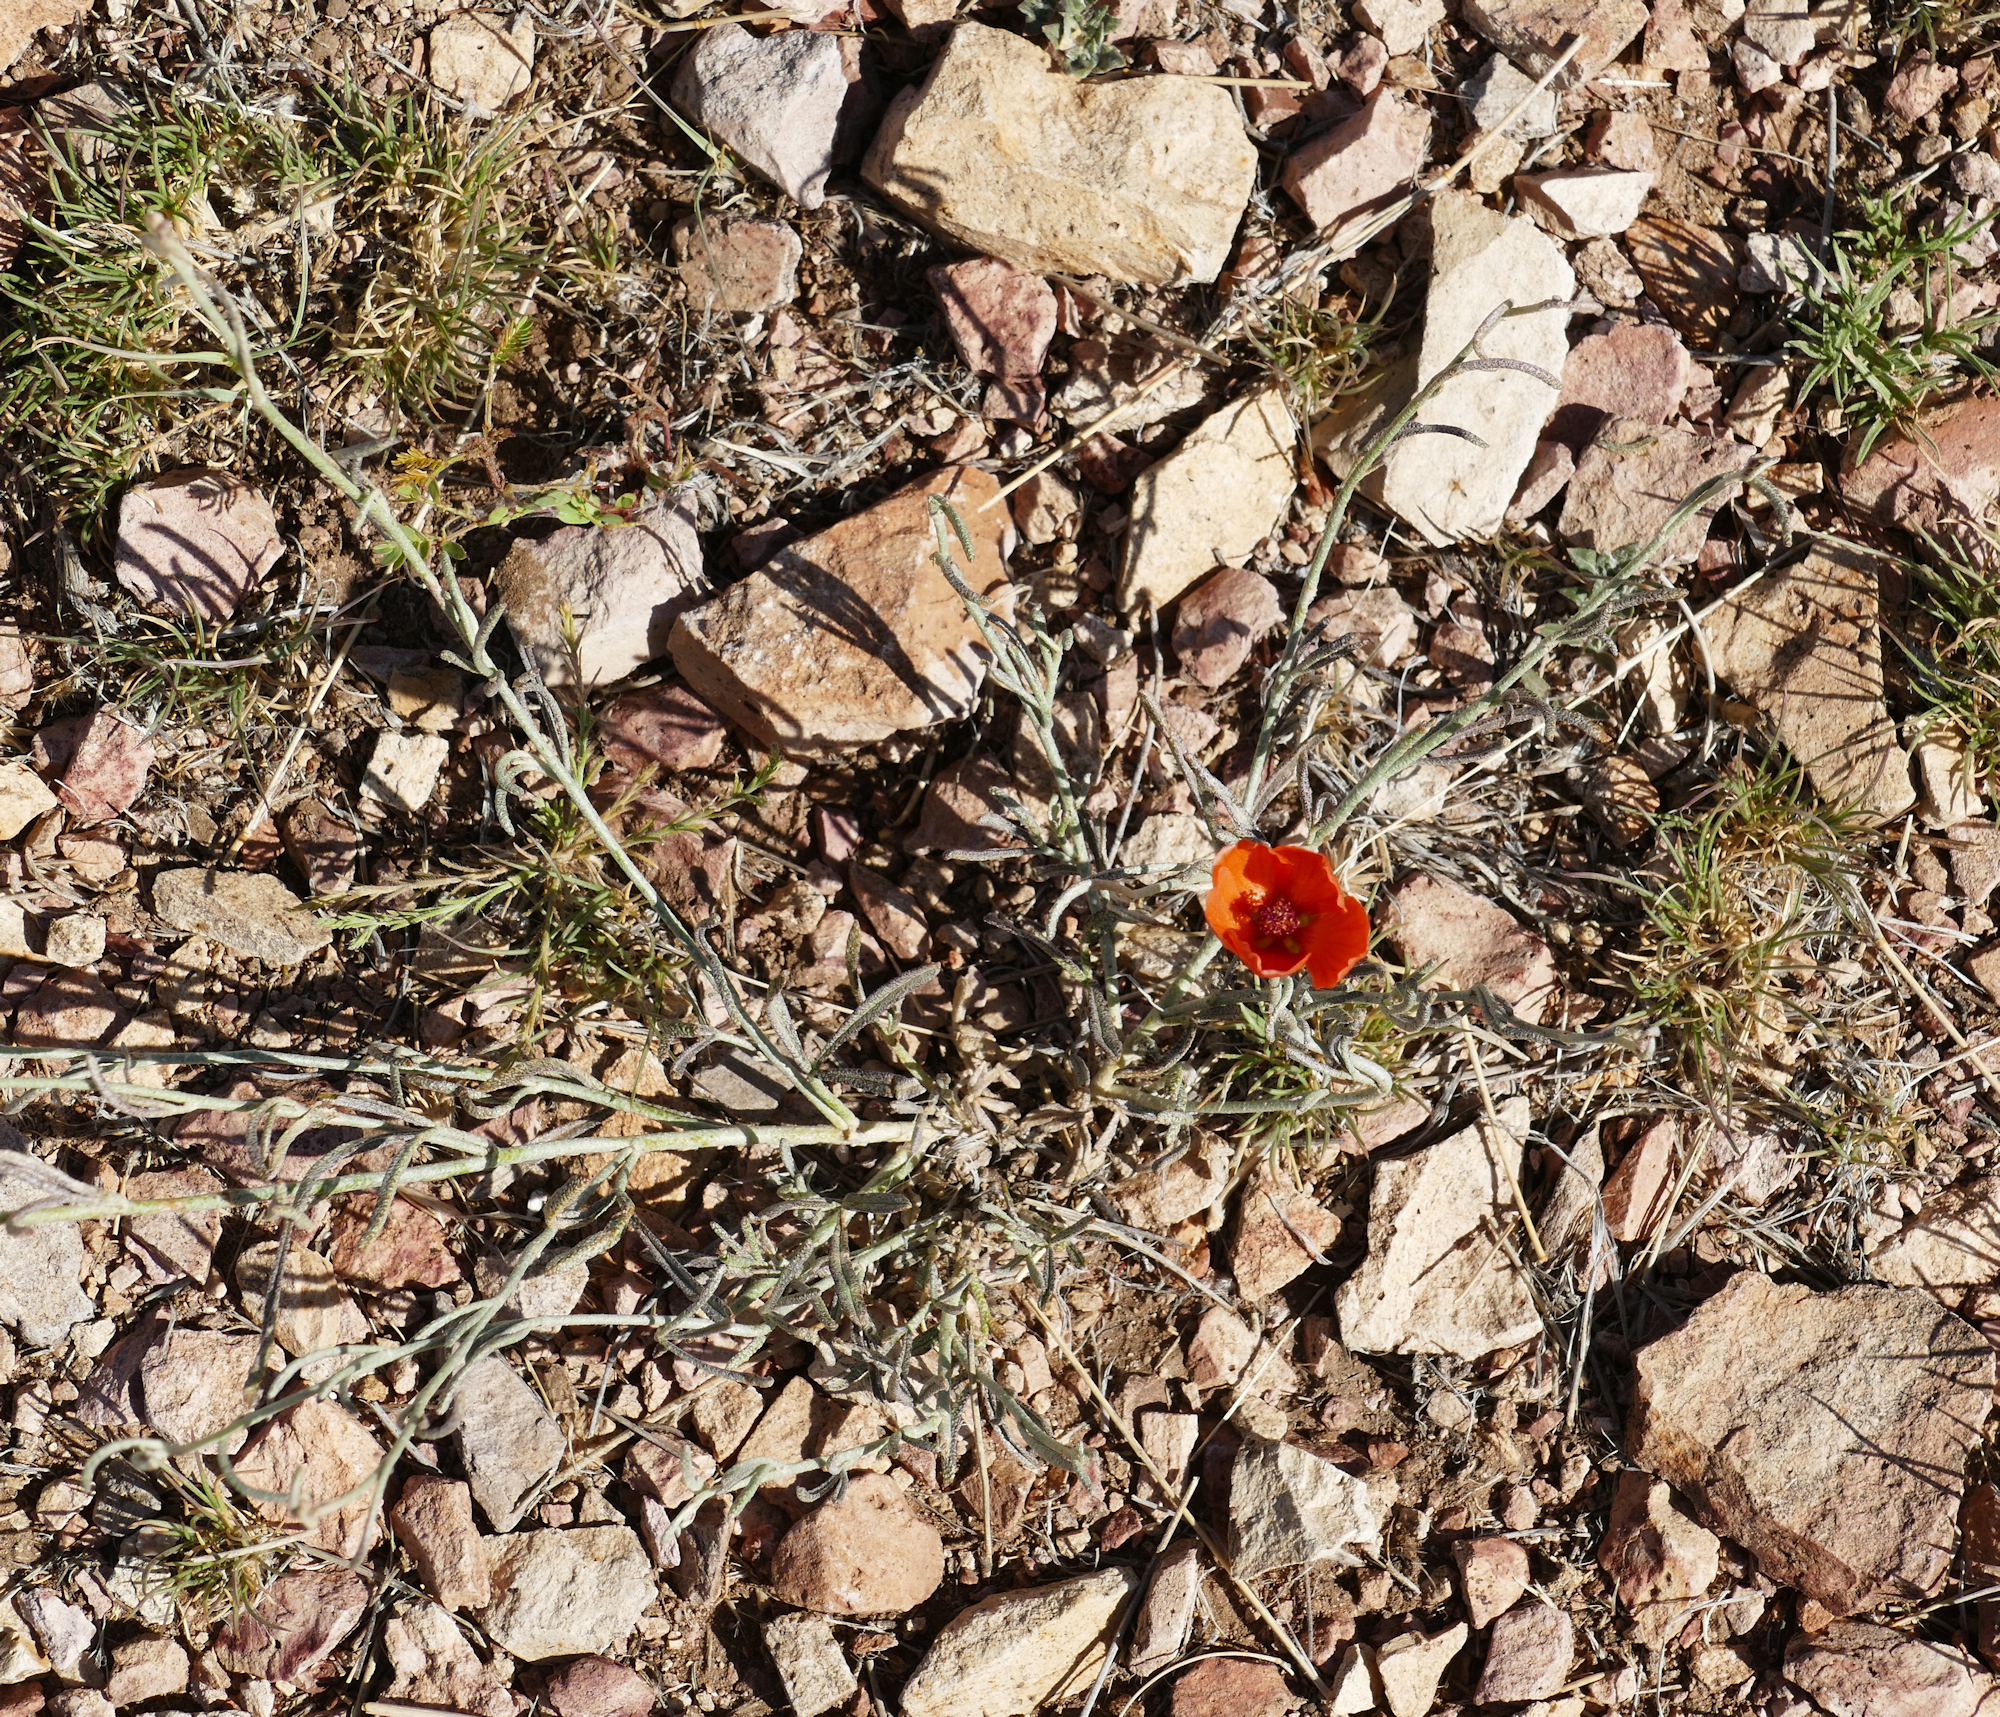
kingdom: Plantae
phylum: Tracheophyta
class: Magnoliopsida
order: Malvales
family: Malvaceae
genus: Sphaeralcea
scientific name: Sphaeralcea digitata
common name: Juniper-gobe-mallow
